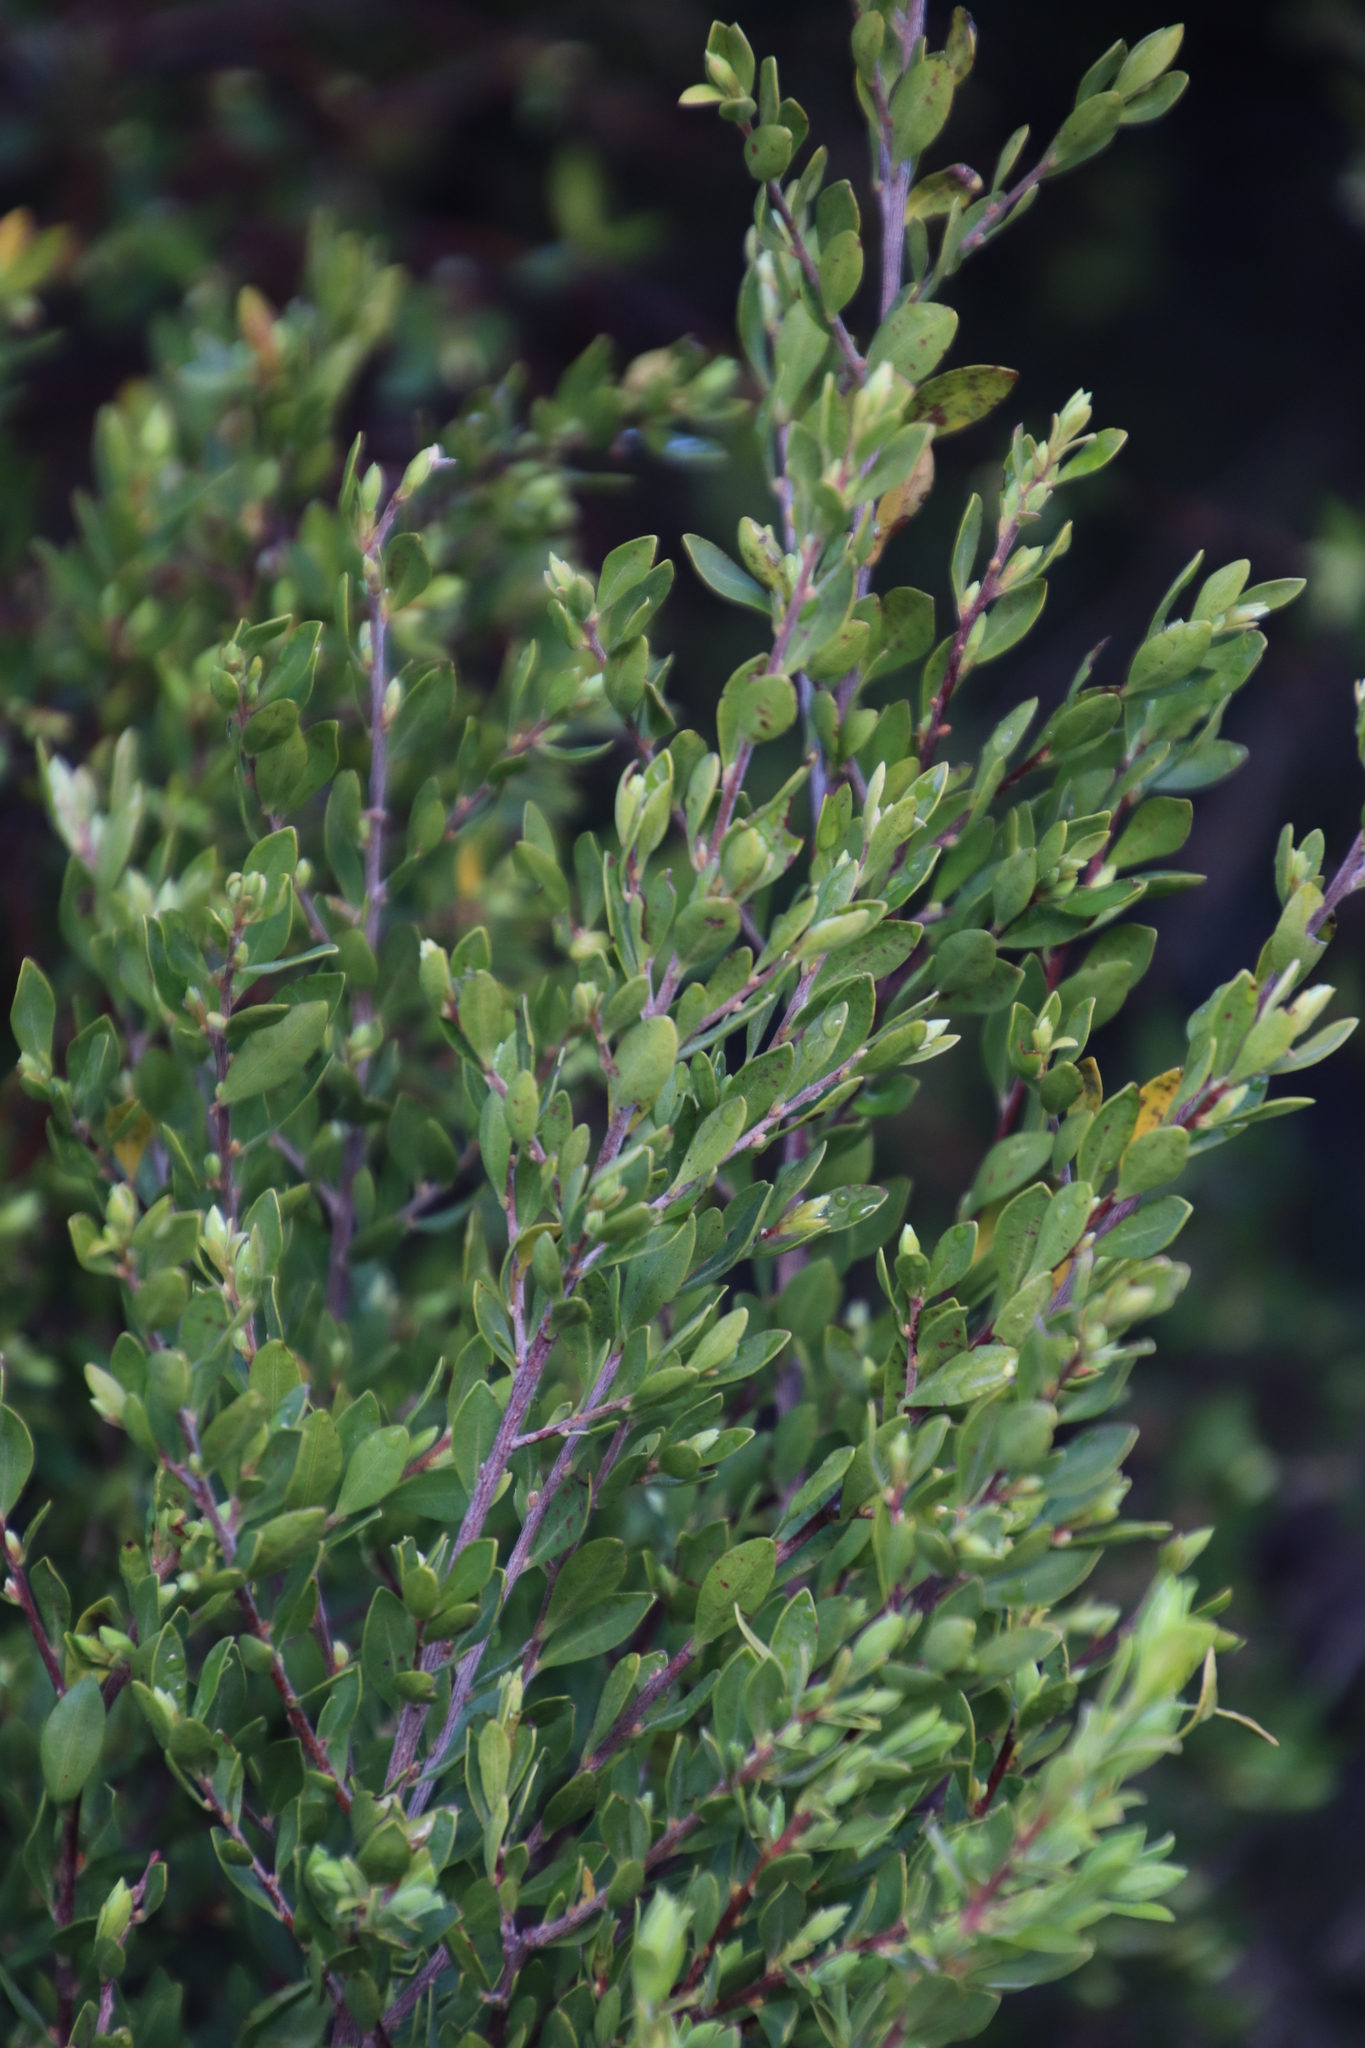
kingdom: Plantae
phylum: Tracheophyta
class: Magnoliopsida
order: Ericales
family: Ebenaceae
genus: Diospyros
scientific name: Diospyros glabra
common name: Fynbos star apple
